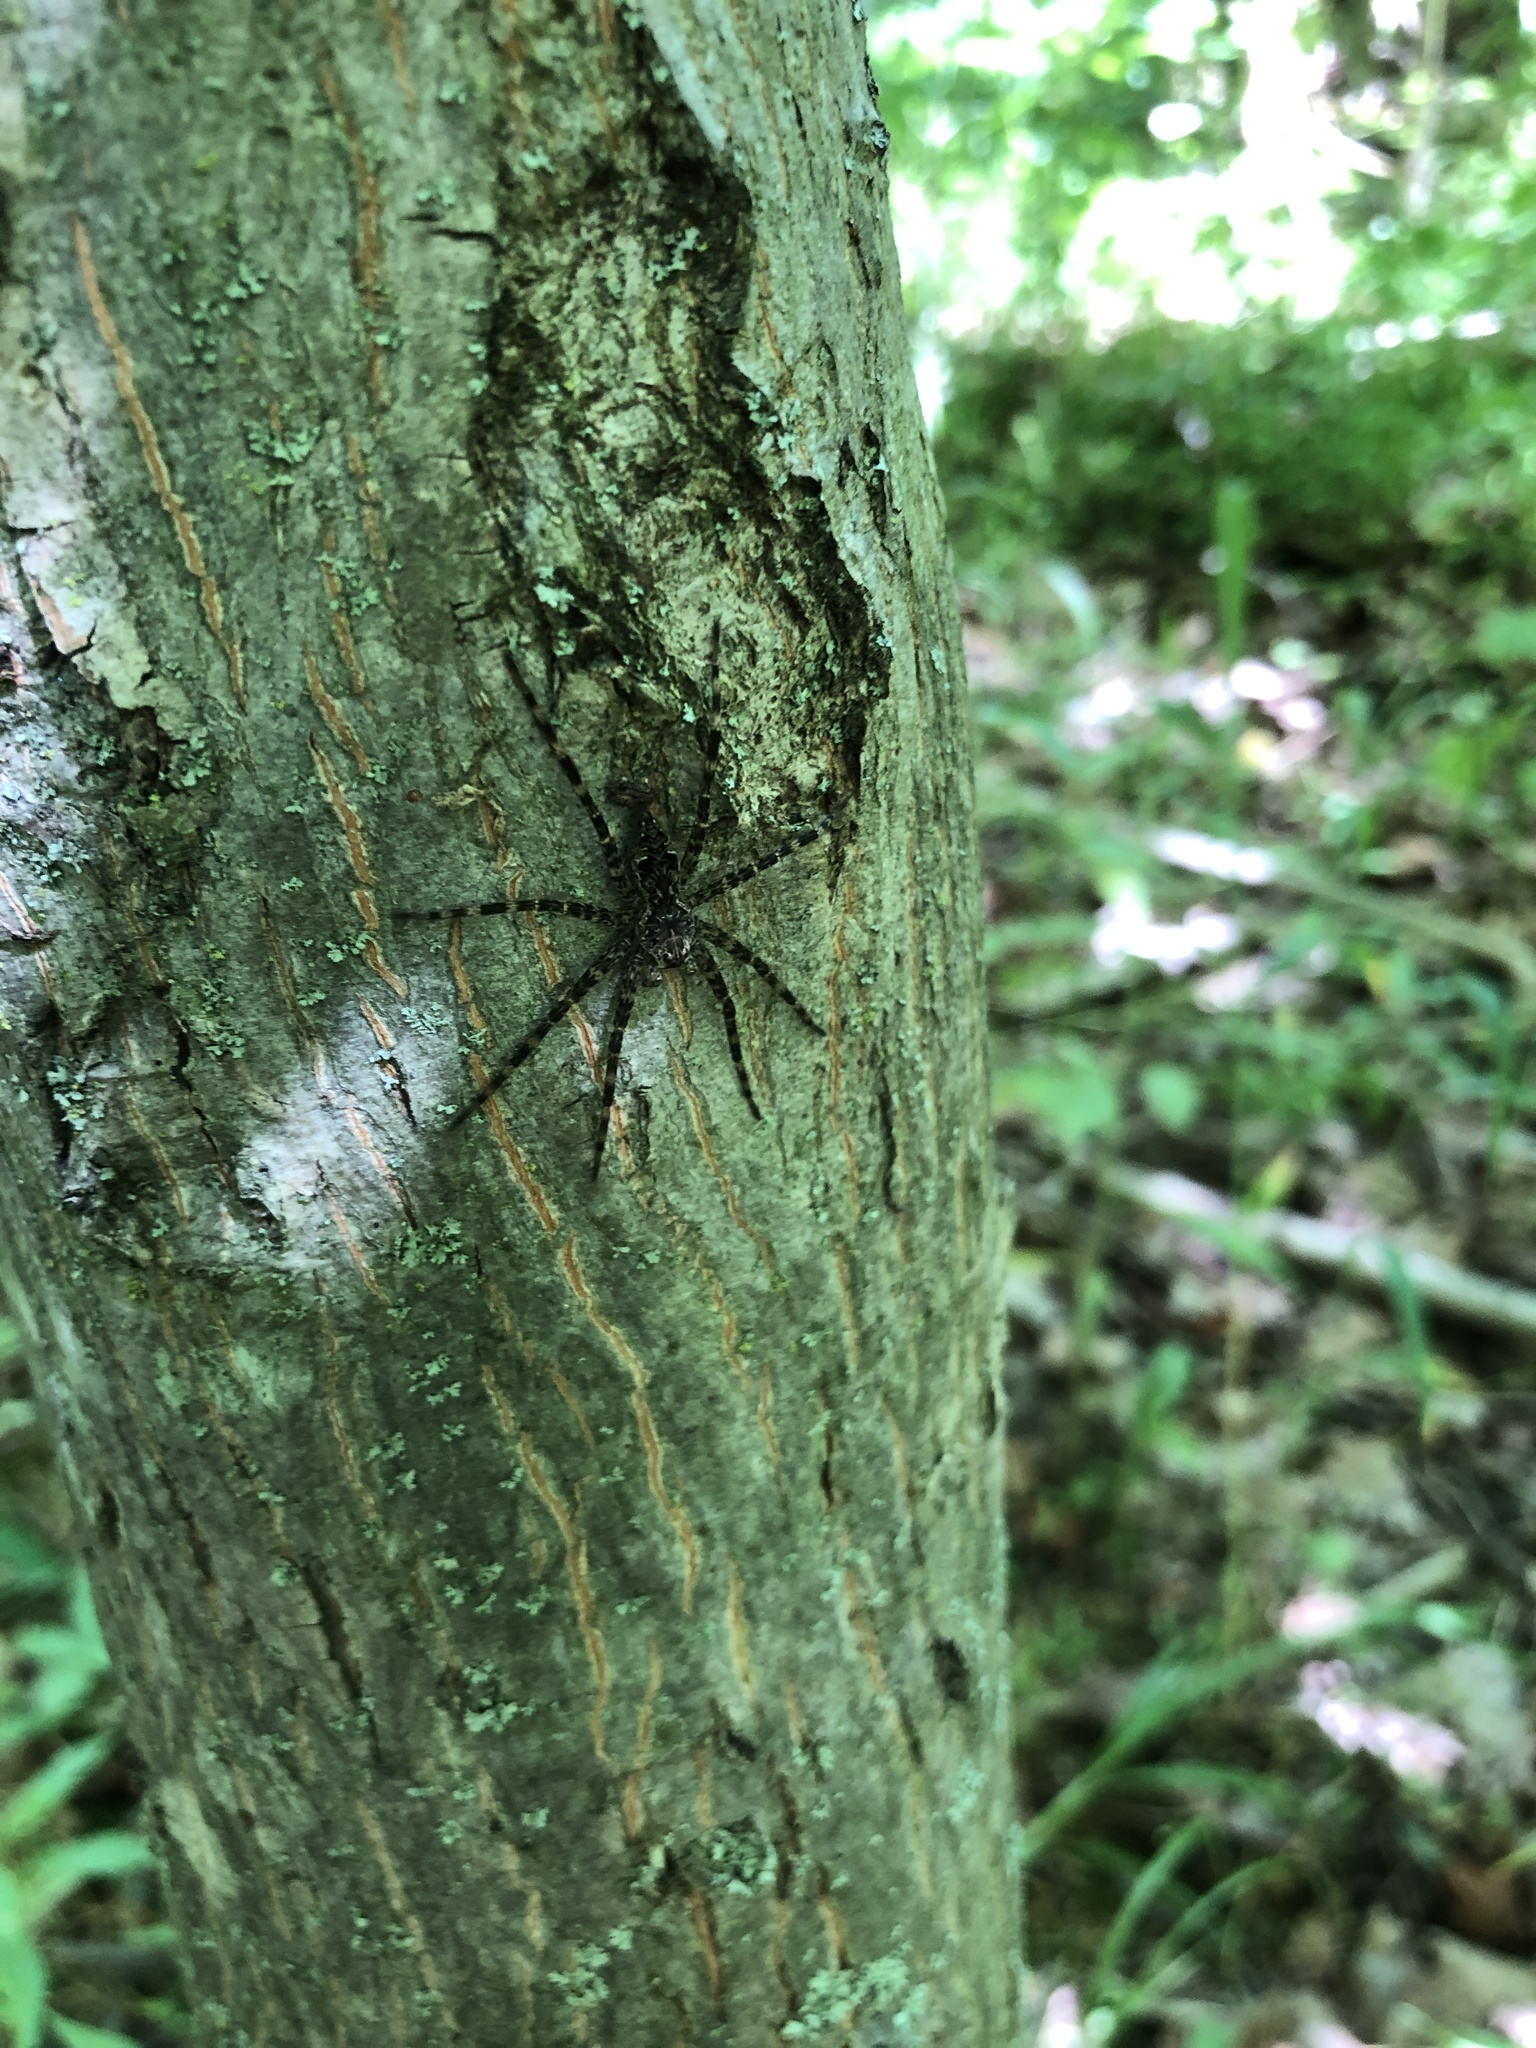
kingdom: Animalia
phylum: Arthropoda
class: Arachnida
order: Araneae
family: Pisauridae
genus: Dolomedes
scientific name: Dolomedes tenebrosus
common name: Dark fishing spider
